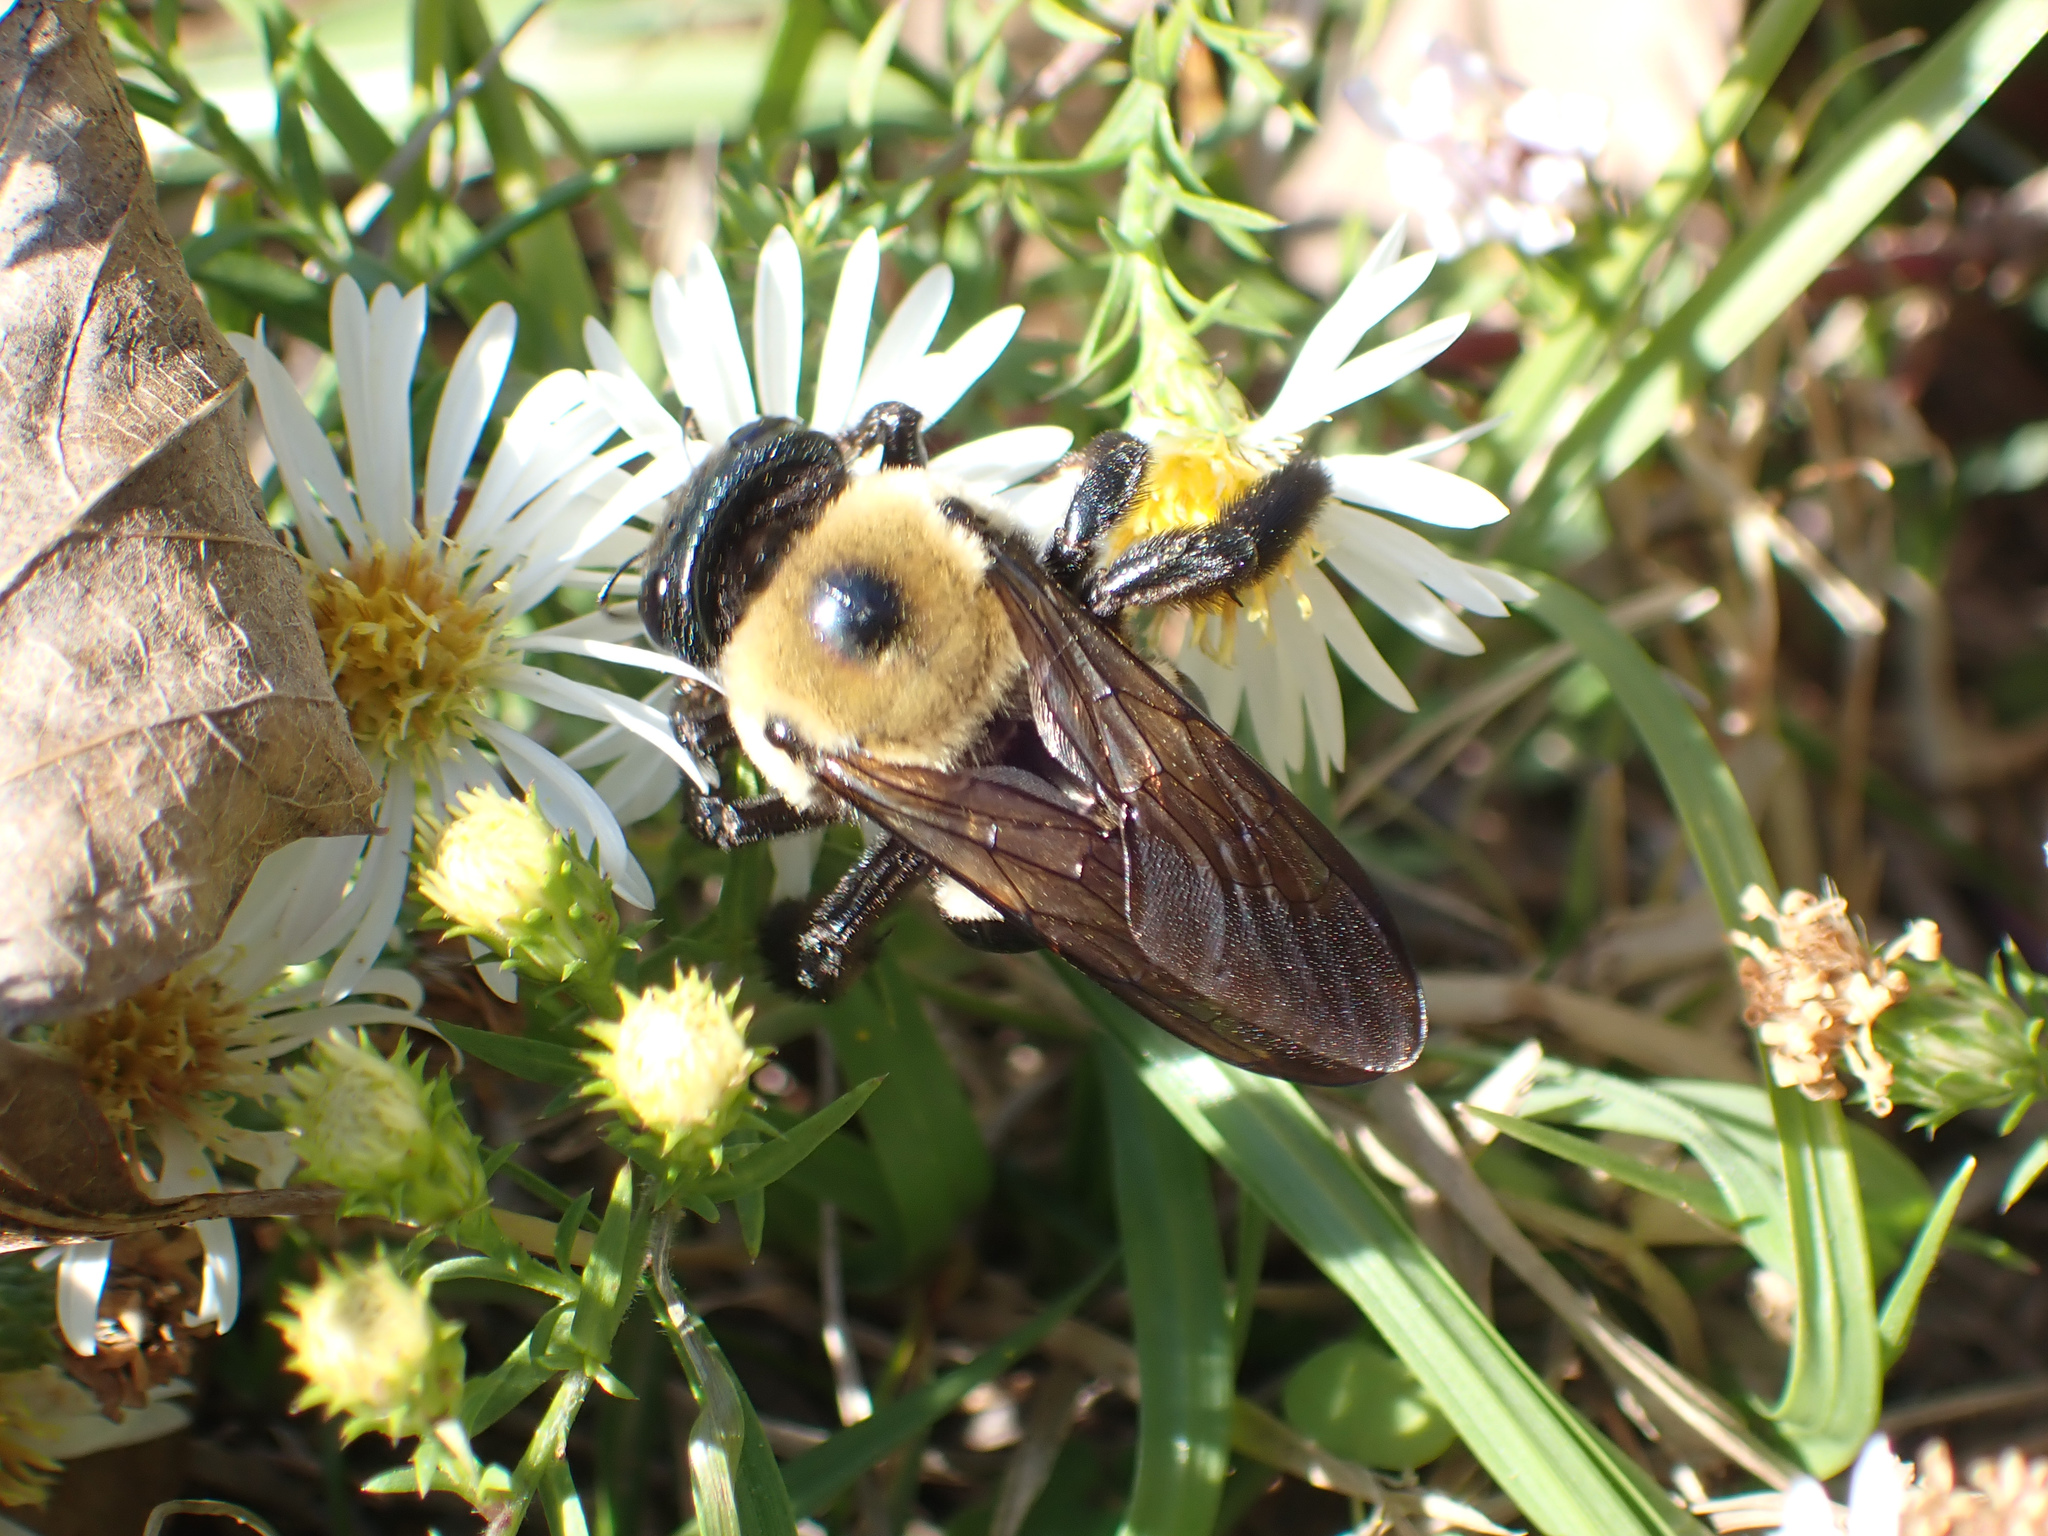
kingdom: Animalia
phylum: Arthropoda
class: Insecta
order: Hymenoptera
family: Apidae
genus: Xylocopa
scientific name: Xylocopa virginica
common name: Carpenter bee
